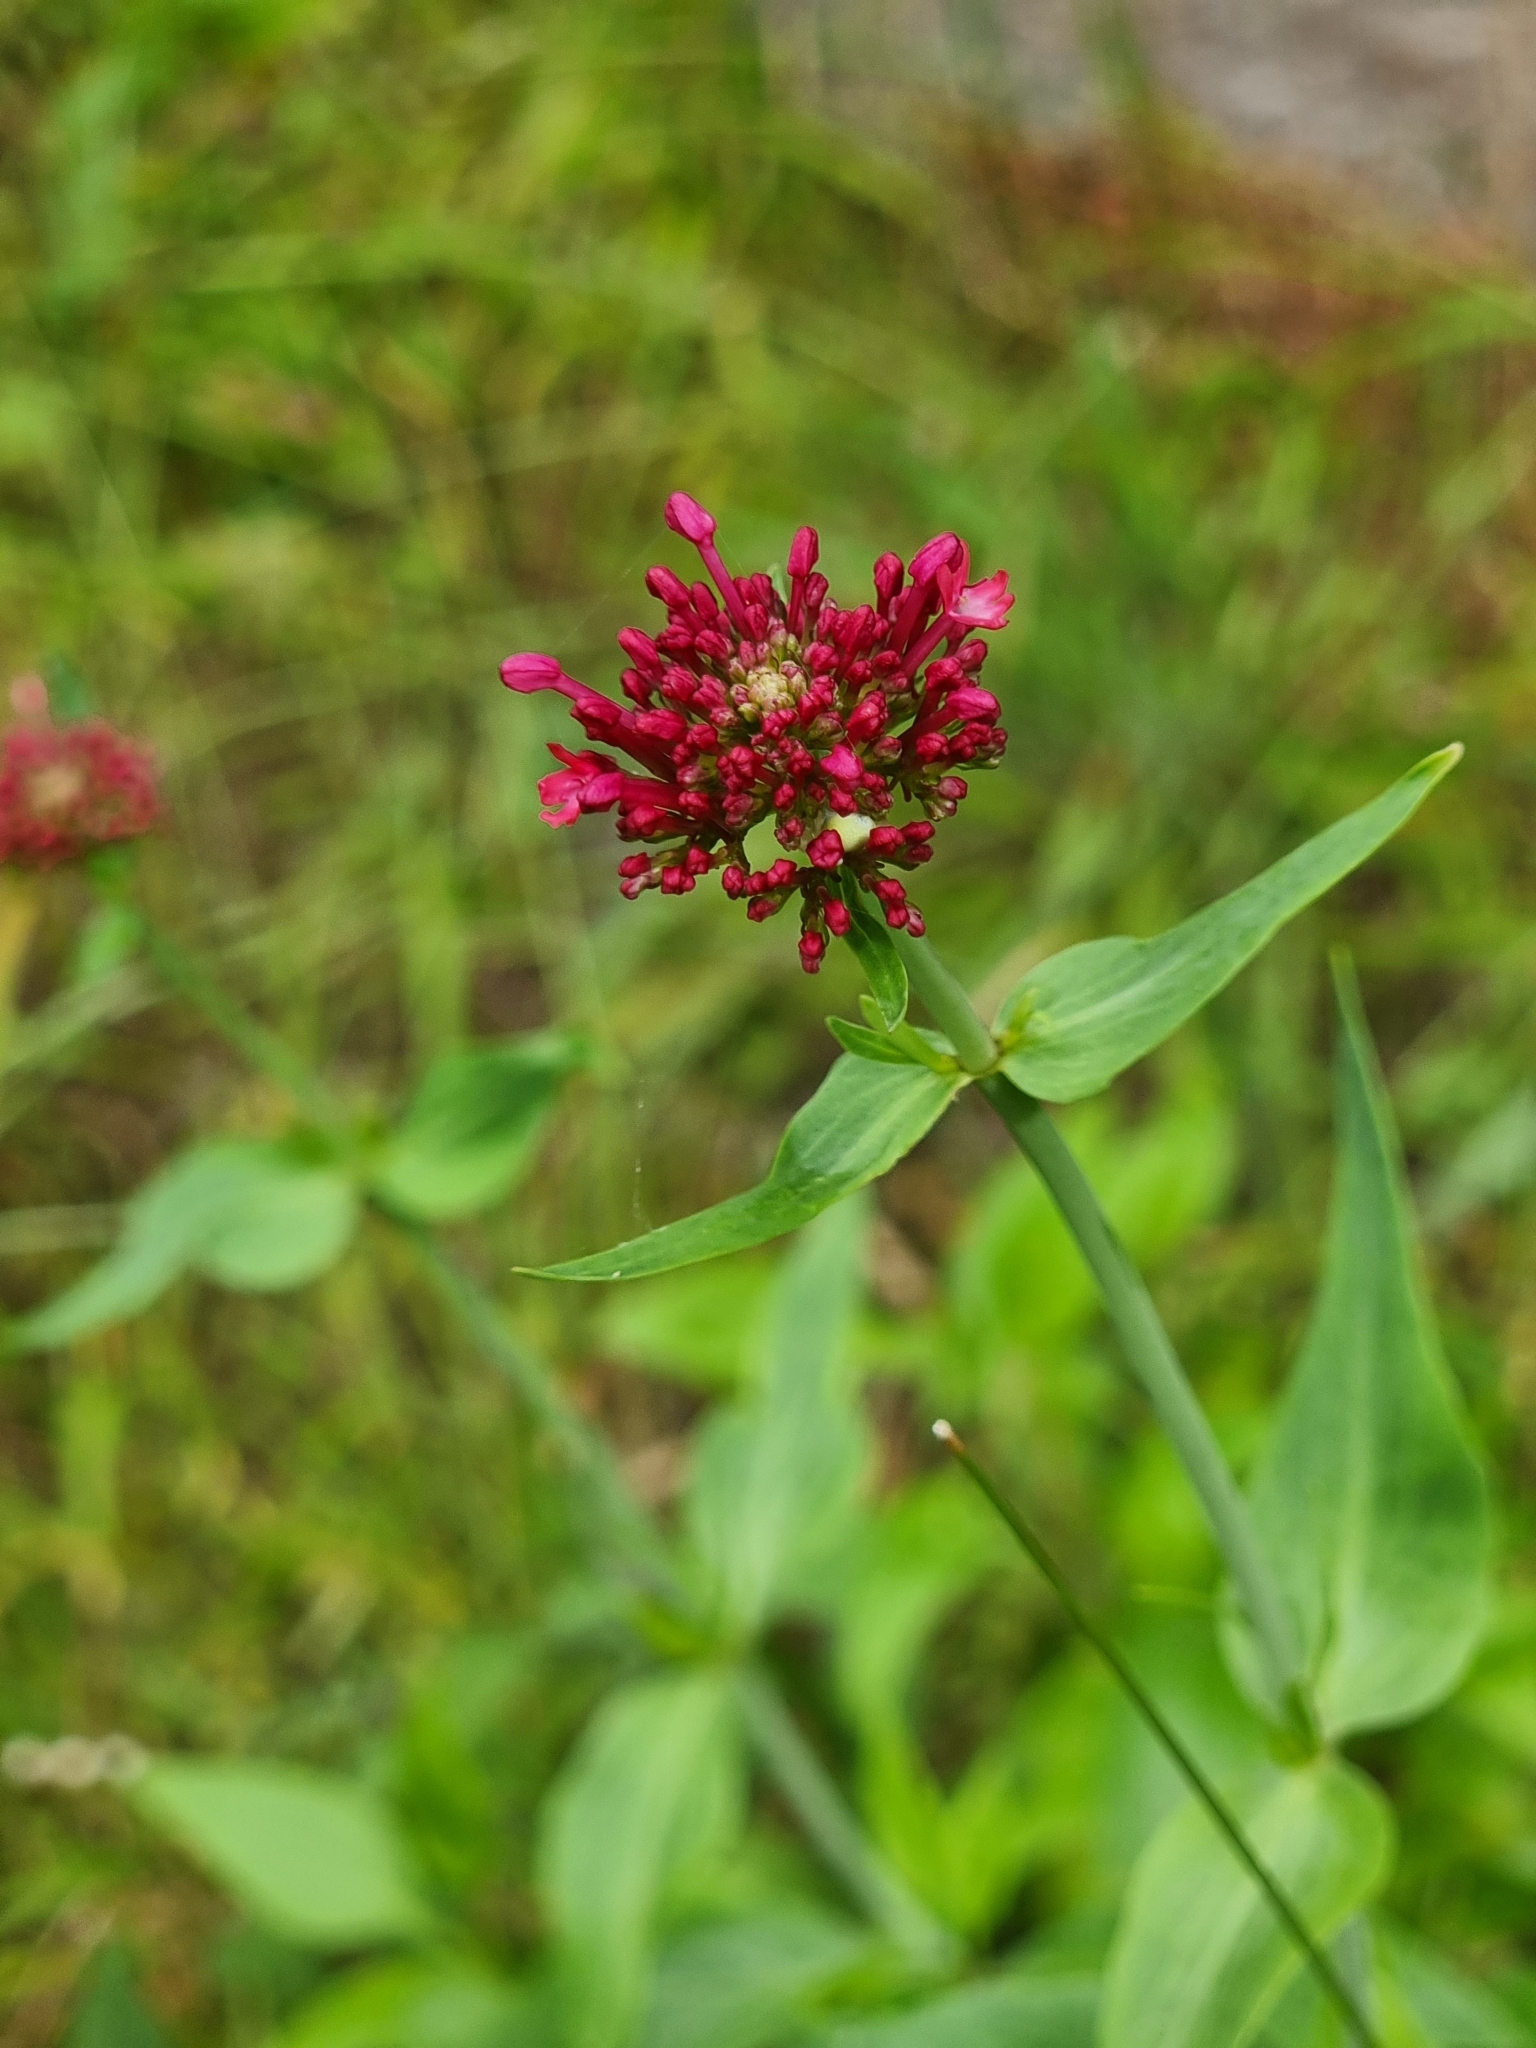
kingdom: Plantae
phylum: Tracheophyta
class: Magnoliopsida
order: Dipsacales
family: Caprifoliaceae
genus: Centranthus
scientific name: Centranthus ruber
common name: Red valerian
